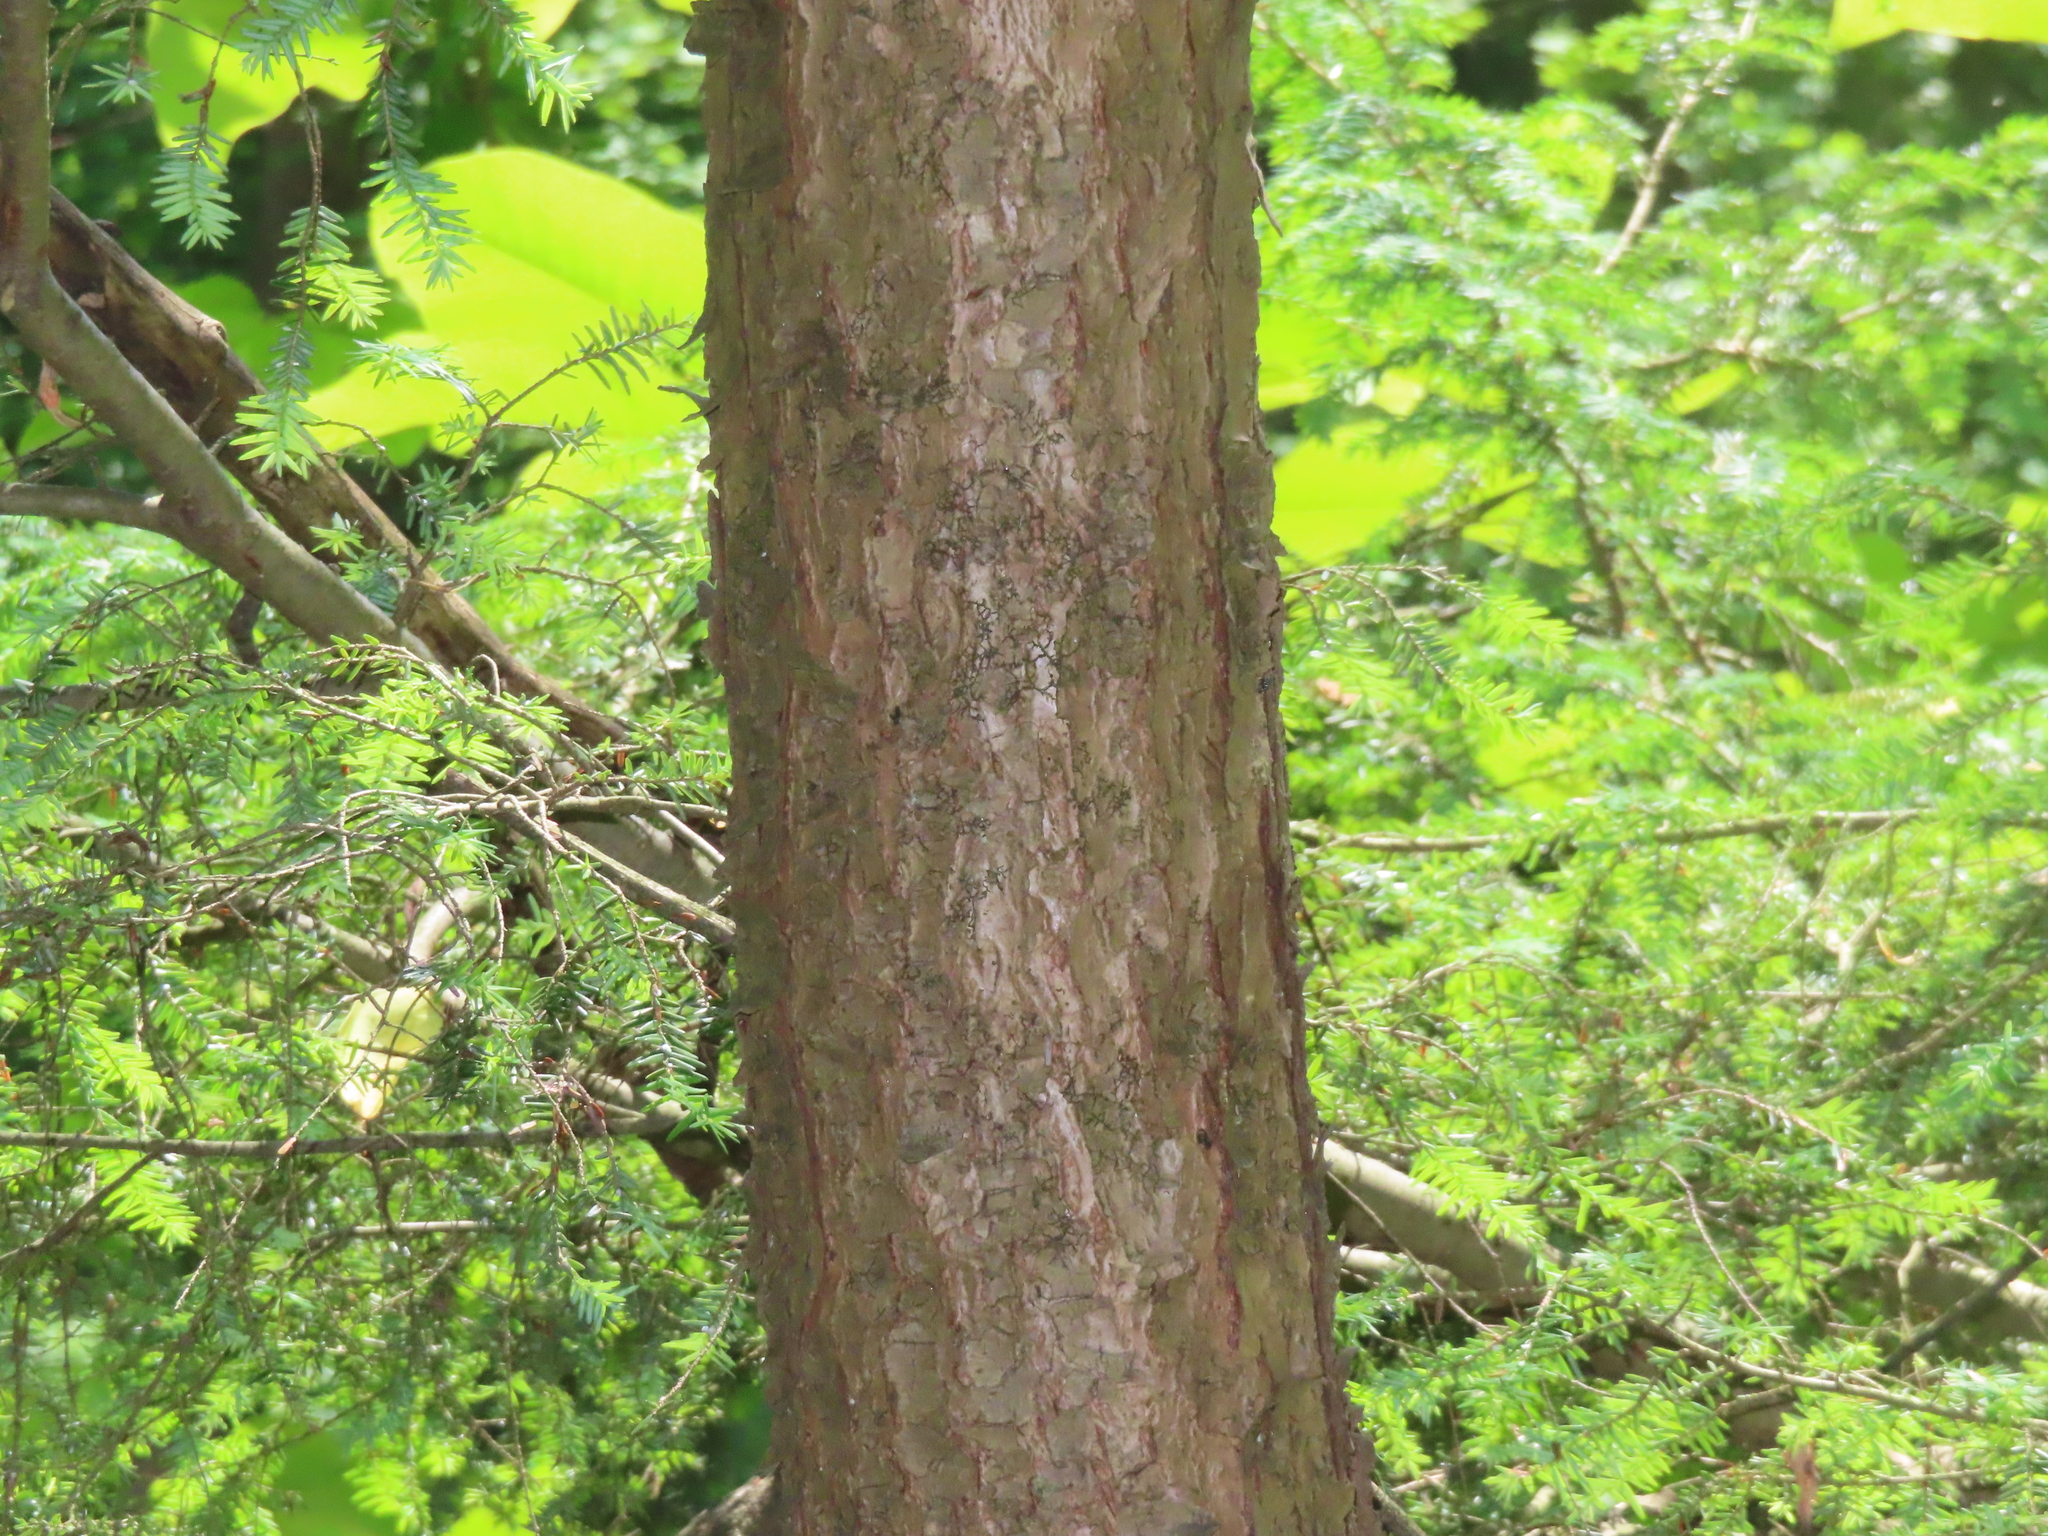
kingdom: Plantae
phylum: Tracheophyta
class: Pinopsida
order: Pinales
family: Pinaceae
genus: Tsuga
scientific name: Tsuga canadensis
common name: Eastern hemlock
